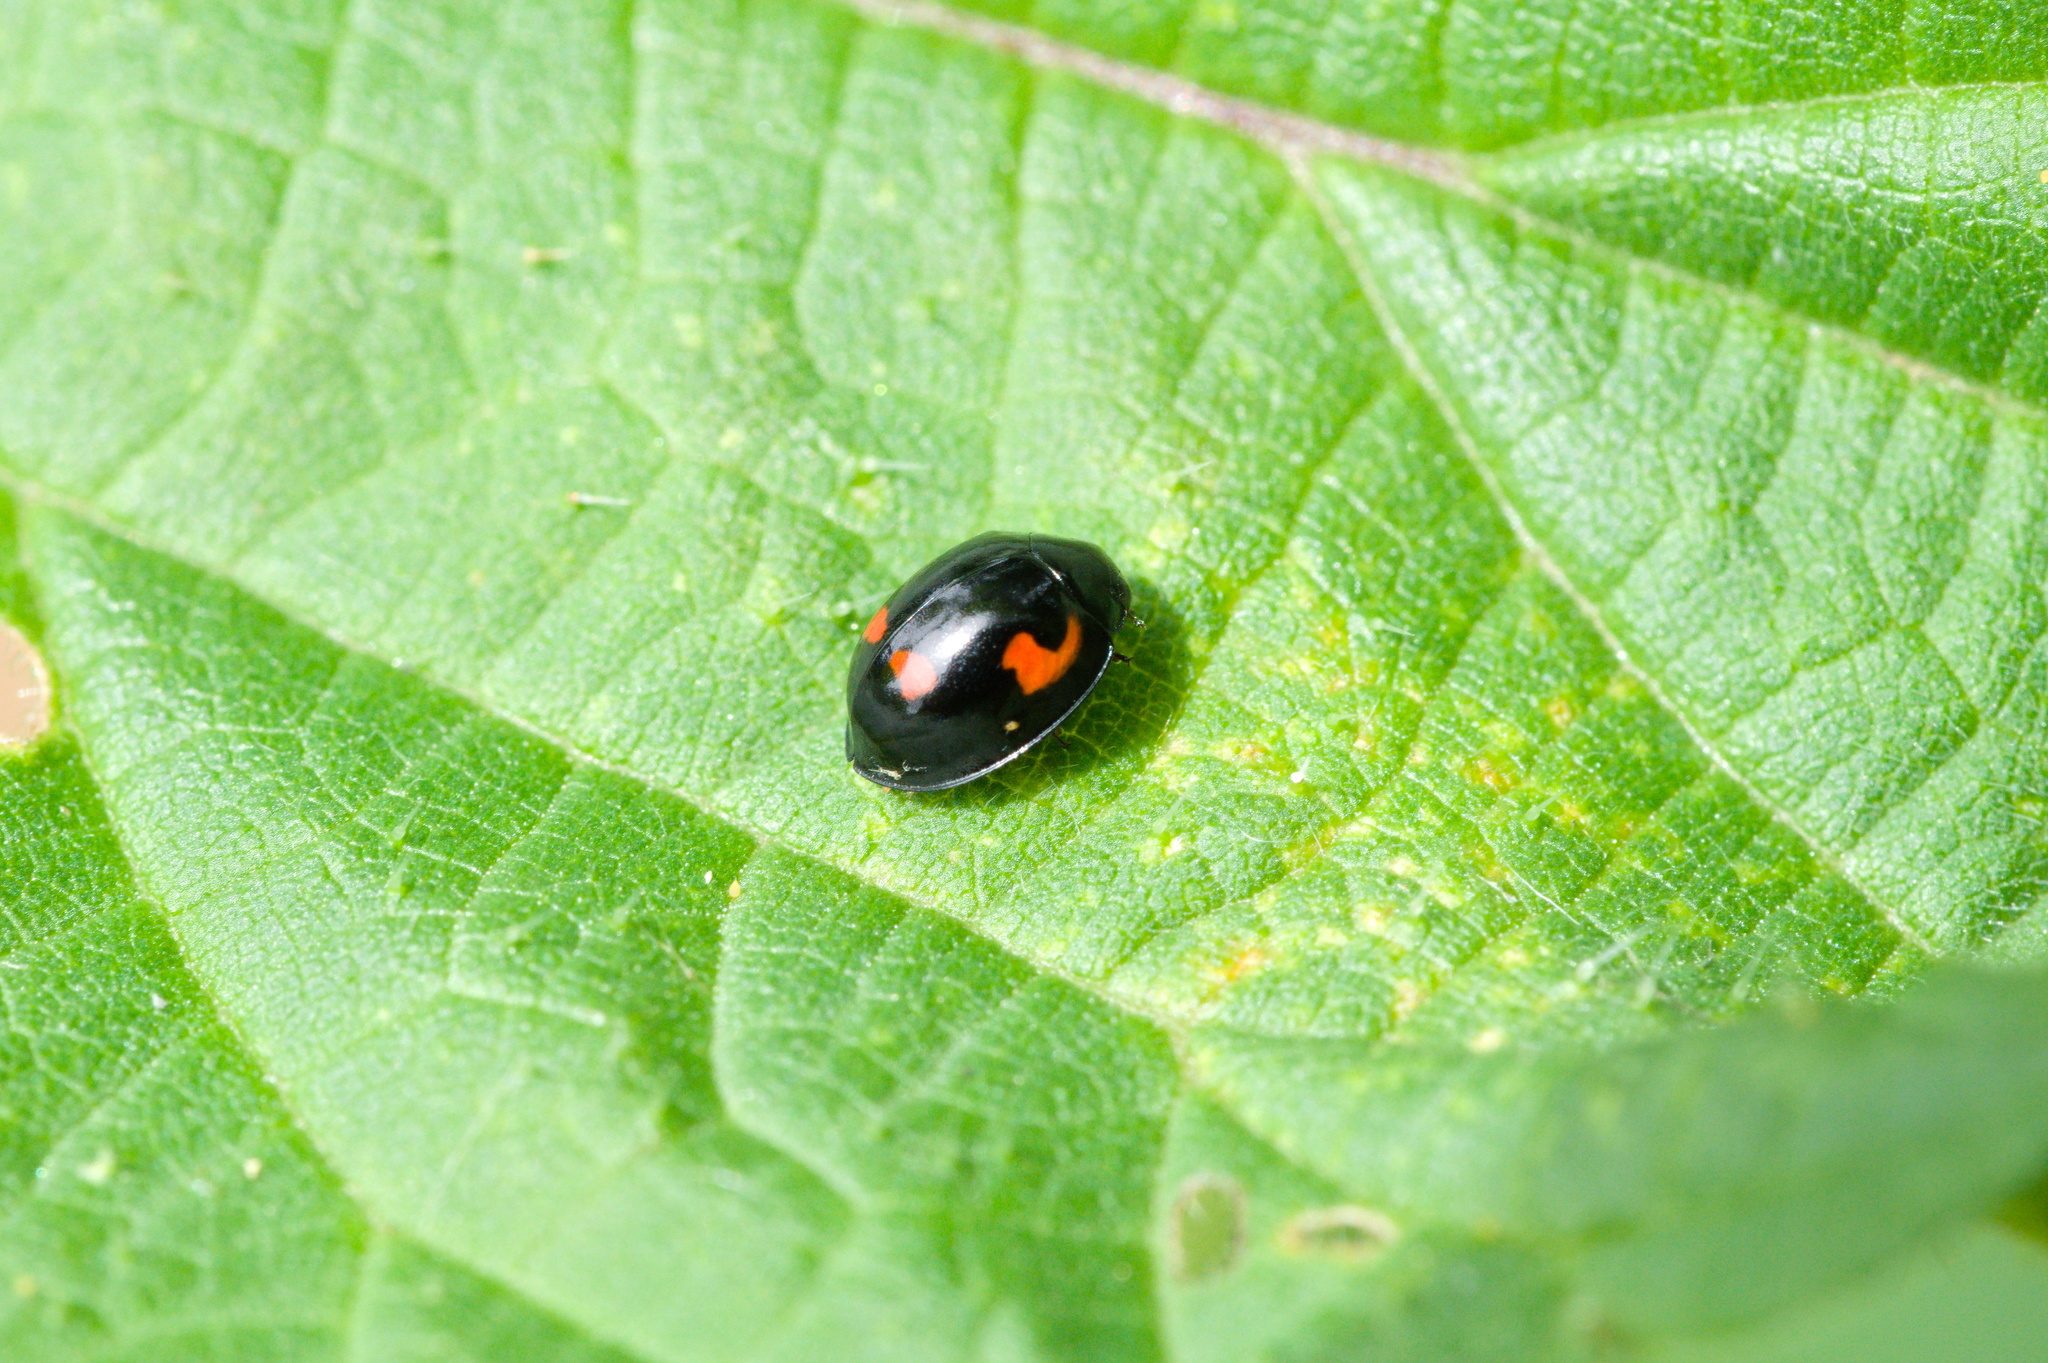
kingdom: Animalia
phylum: Arthropoda
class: Insecta
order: Coleoptera
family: Coccinellidae
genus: Brumus
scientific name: Brumus quadripustulatus
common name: Ladybird beetle
